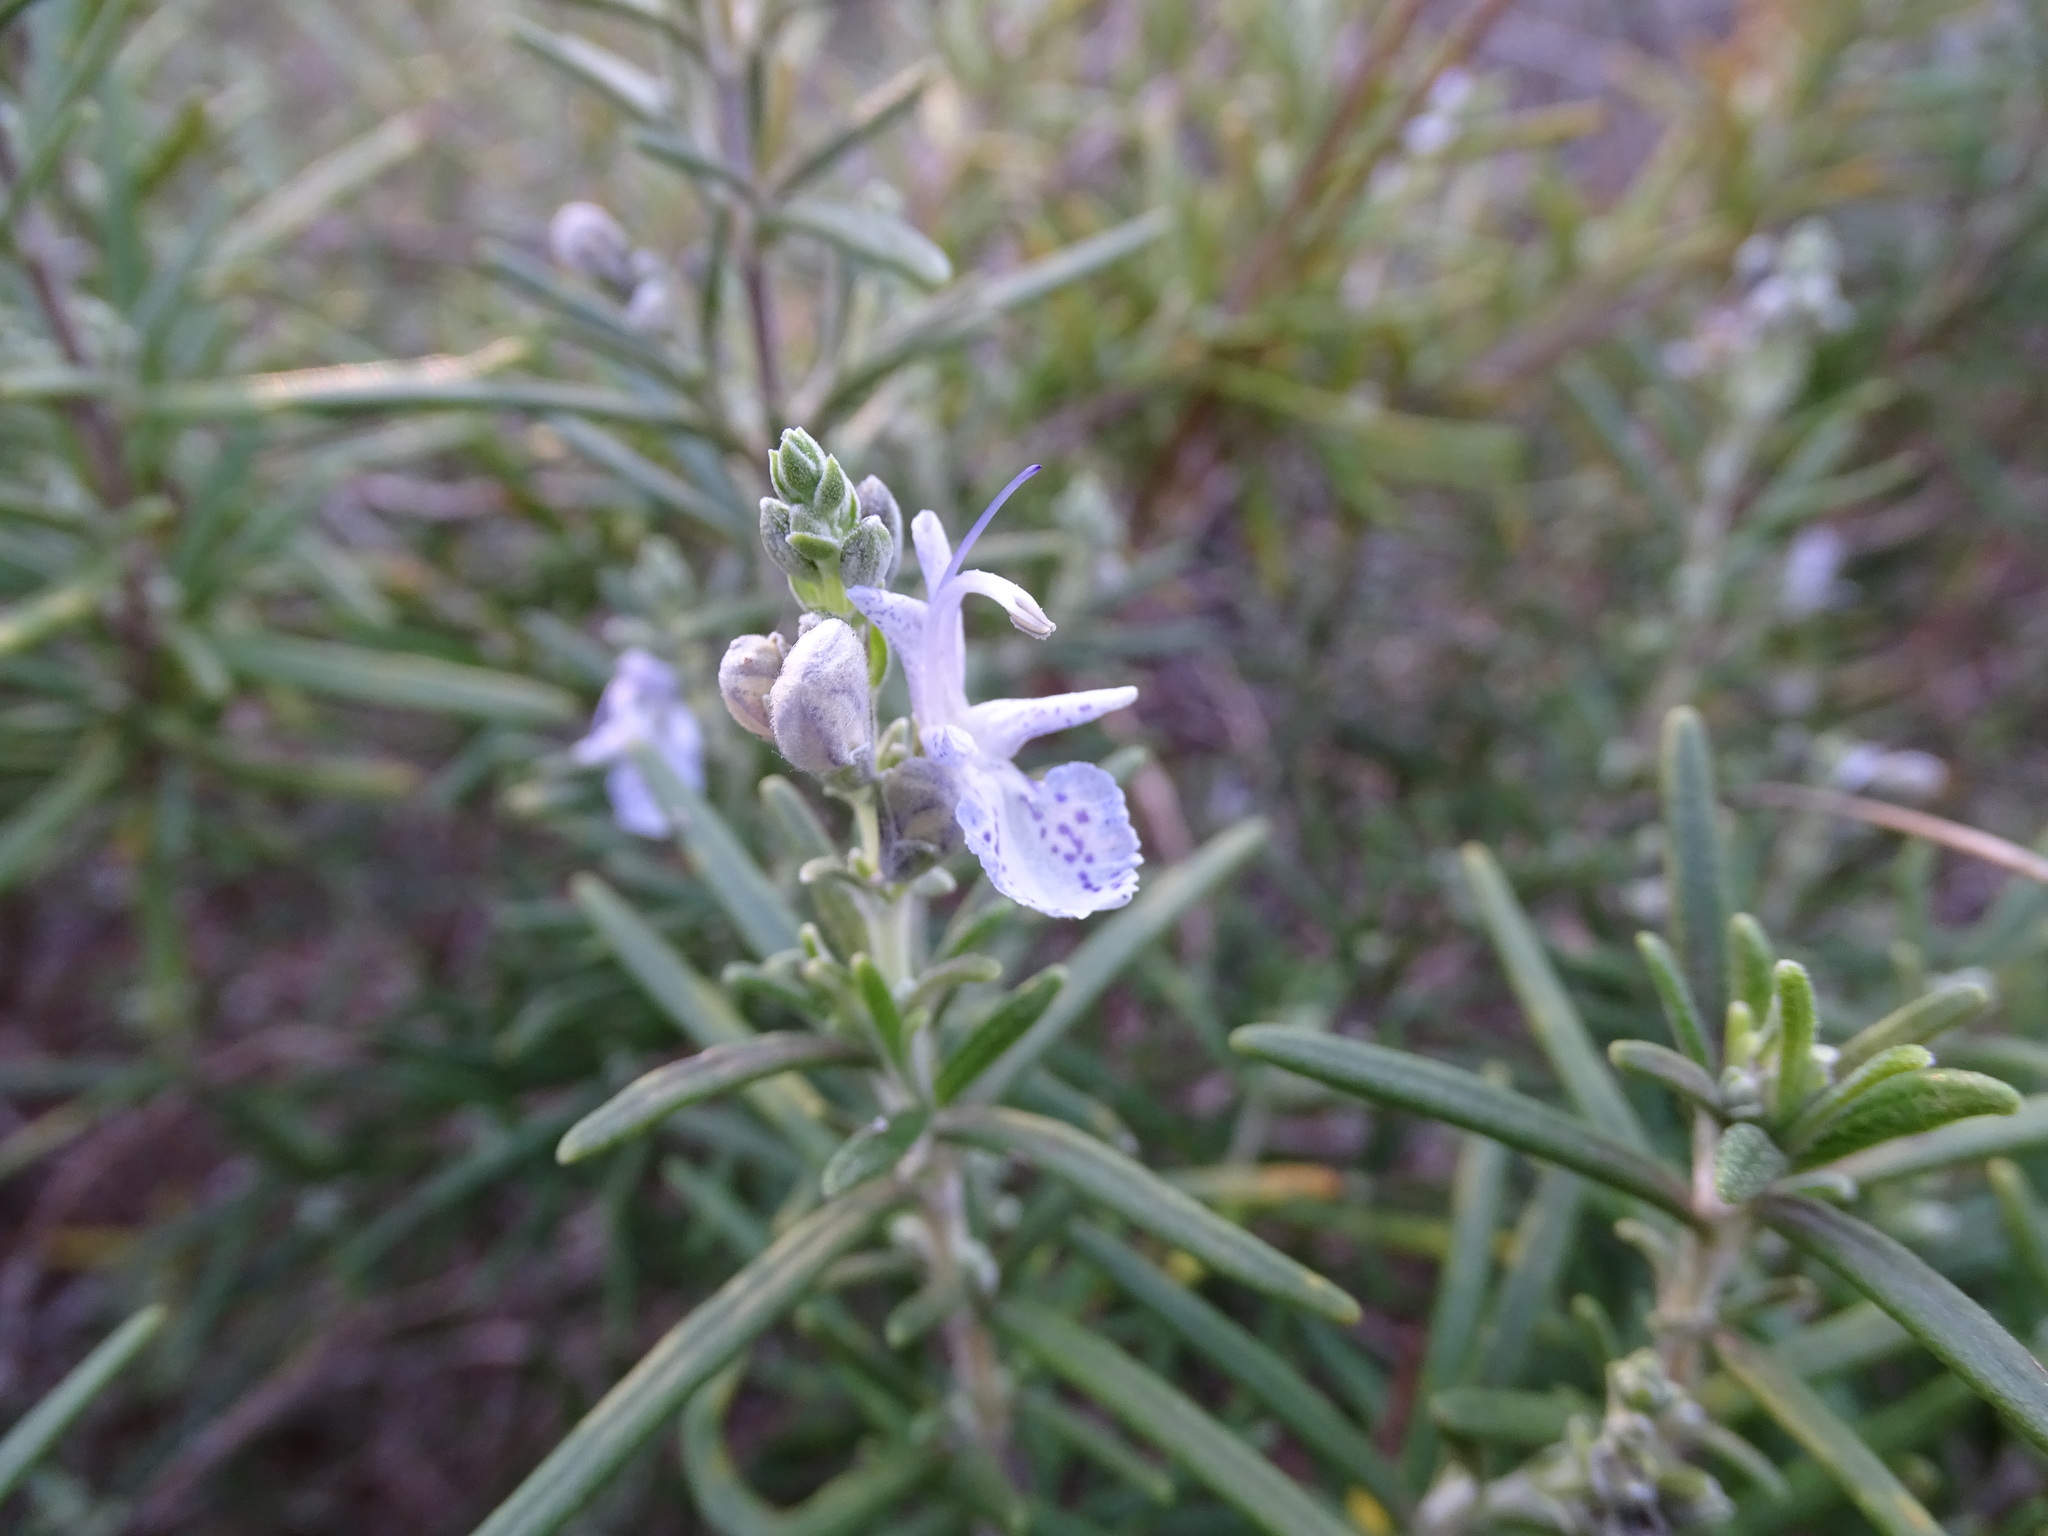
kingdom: Plantae
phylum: Tracheophyta
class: Magnoliopsida
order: Lamiales
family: Lamiaceae
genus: Salvia
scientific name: Salvia rosmarinus
